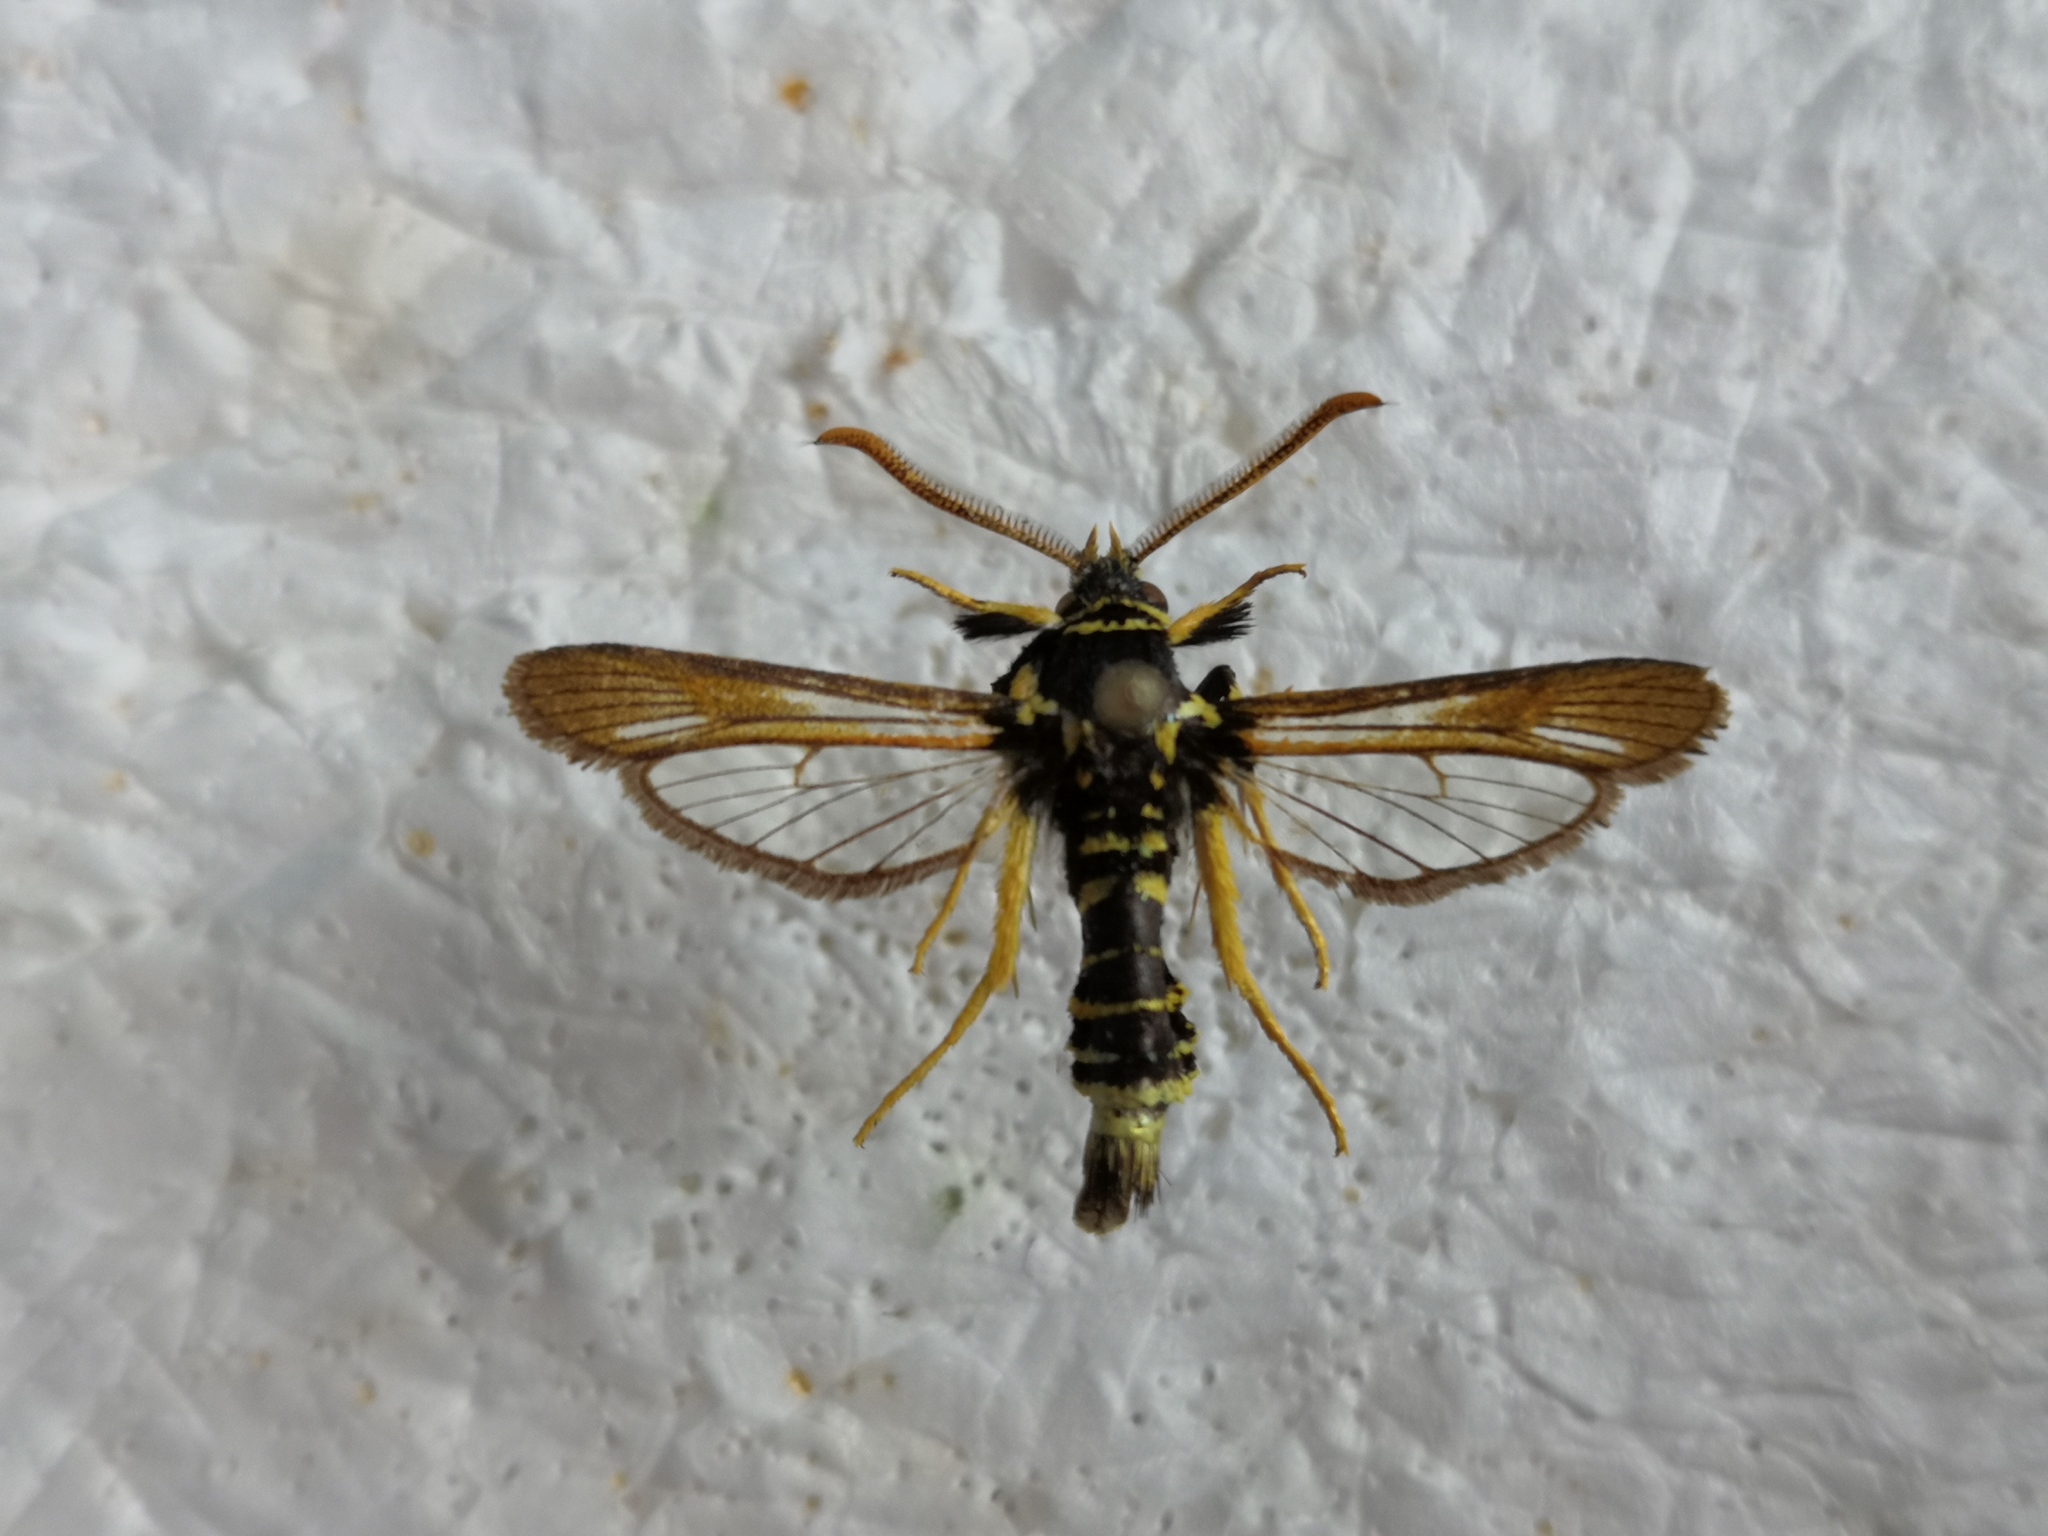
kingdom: Animalia
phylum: Arthropoda
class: Insecta
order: Lepidoptera
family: Sesiidae
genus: Paranthrene
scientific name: Paranthrene diaphana
